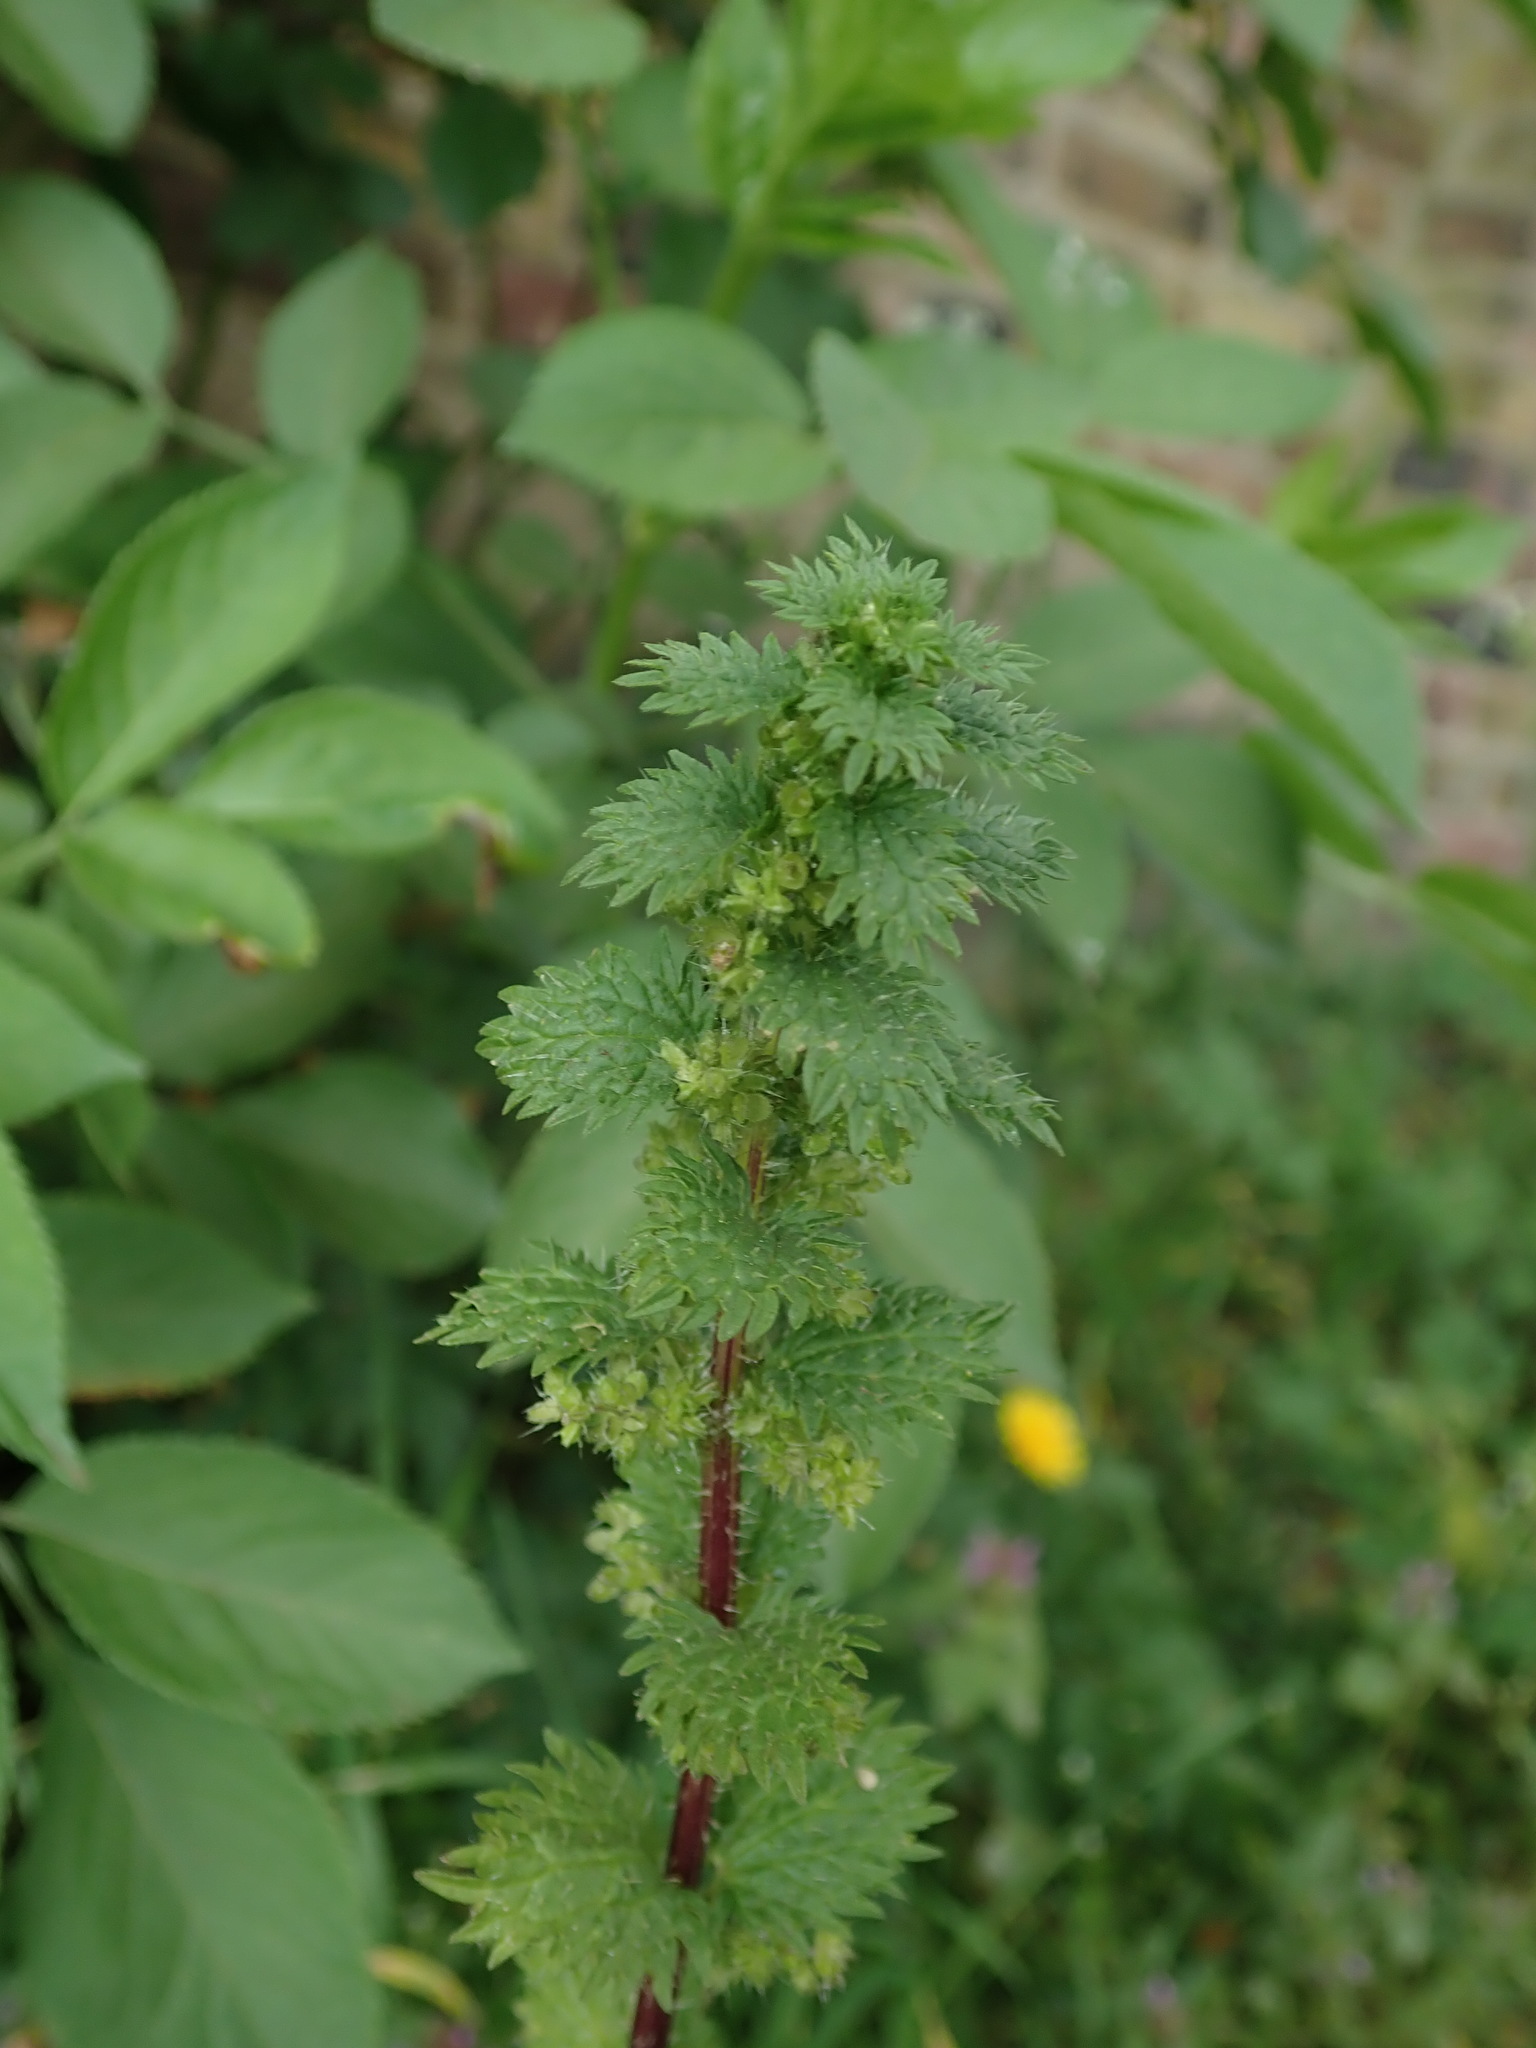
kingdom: Plantae
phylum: Tracheophyta
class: Magnoliopsida
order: Rosales
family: Urticaceae
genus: Urtica
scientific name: Urtica urens
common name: Dwarf nettle
